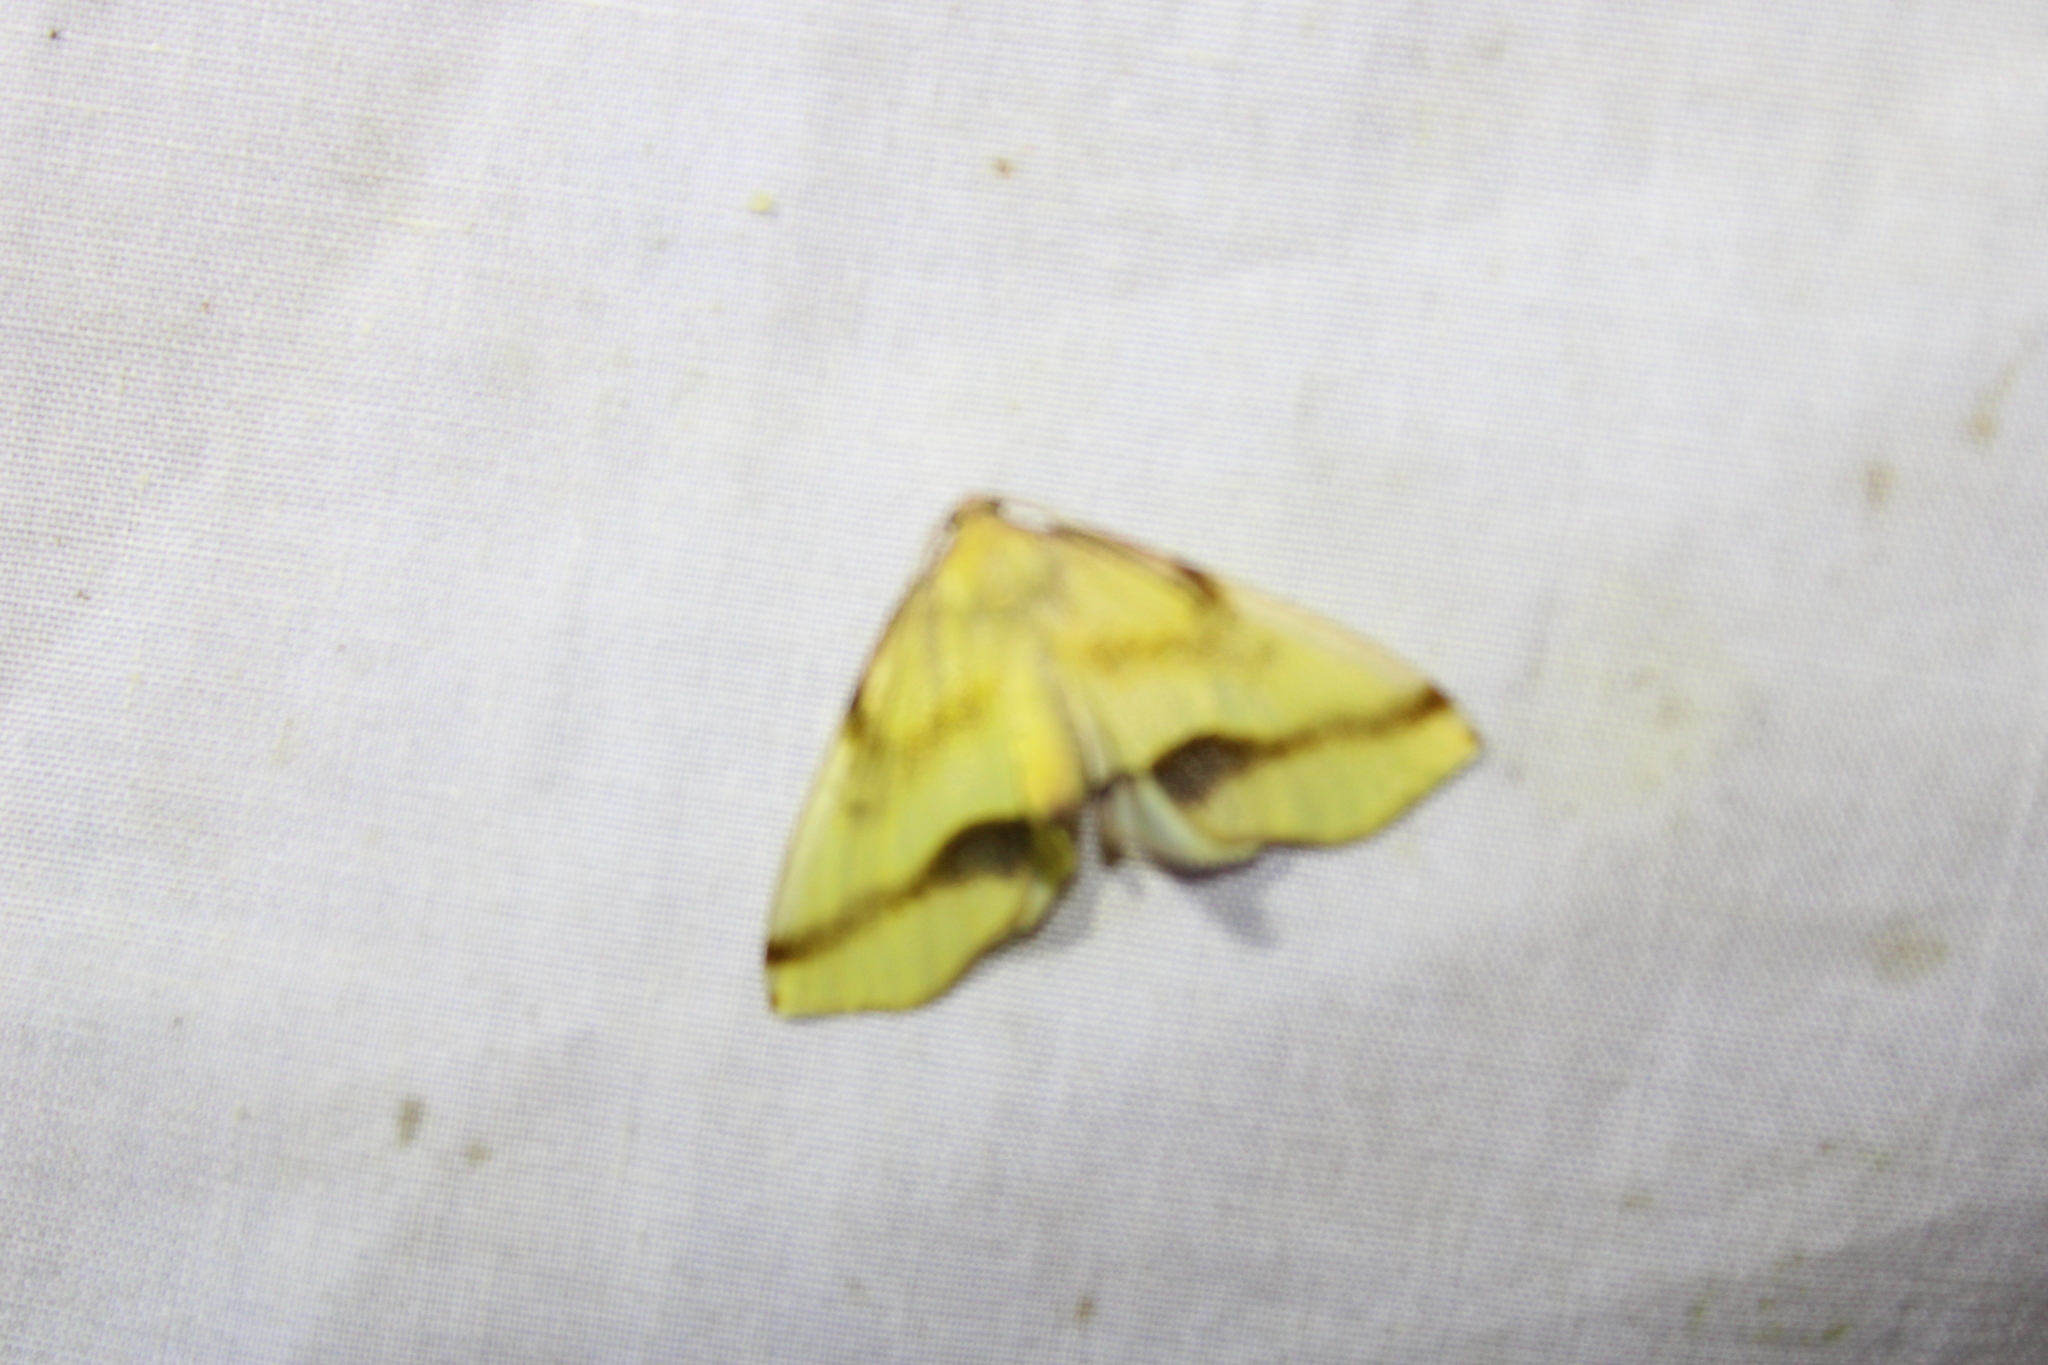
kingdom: Animalia
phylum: Arthropoda
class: Insecta
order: Lepidoptera
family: Geometridae
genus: Plagodis
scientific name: Plagodis serinaria
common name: Lemon plagodis
